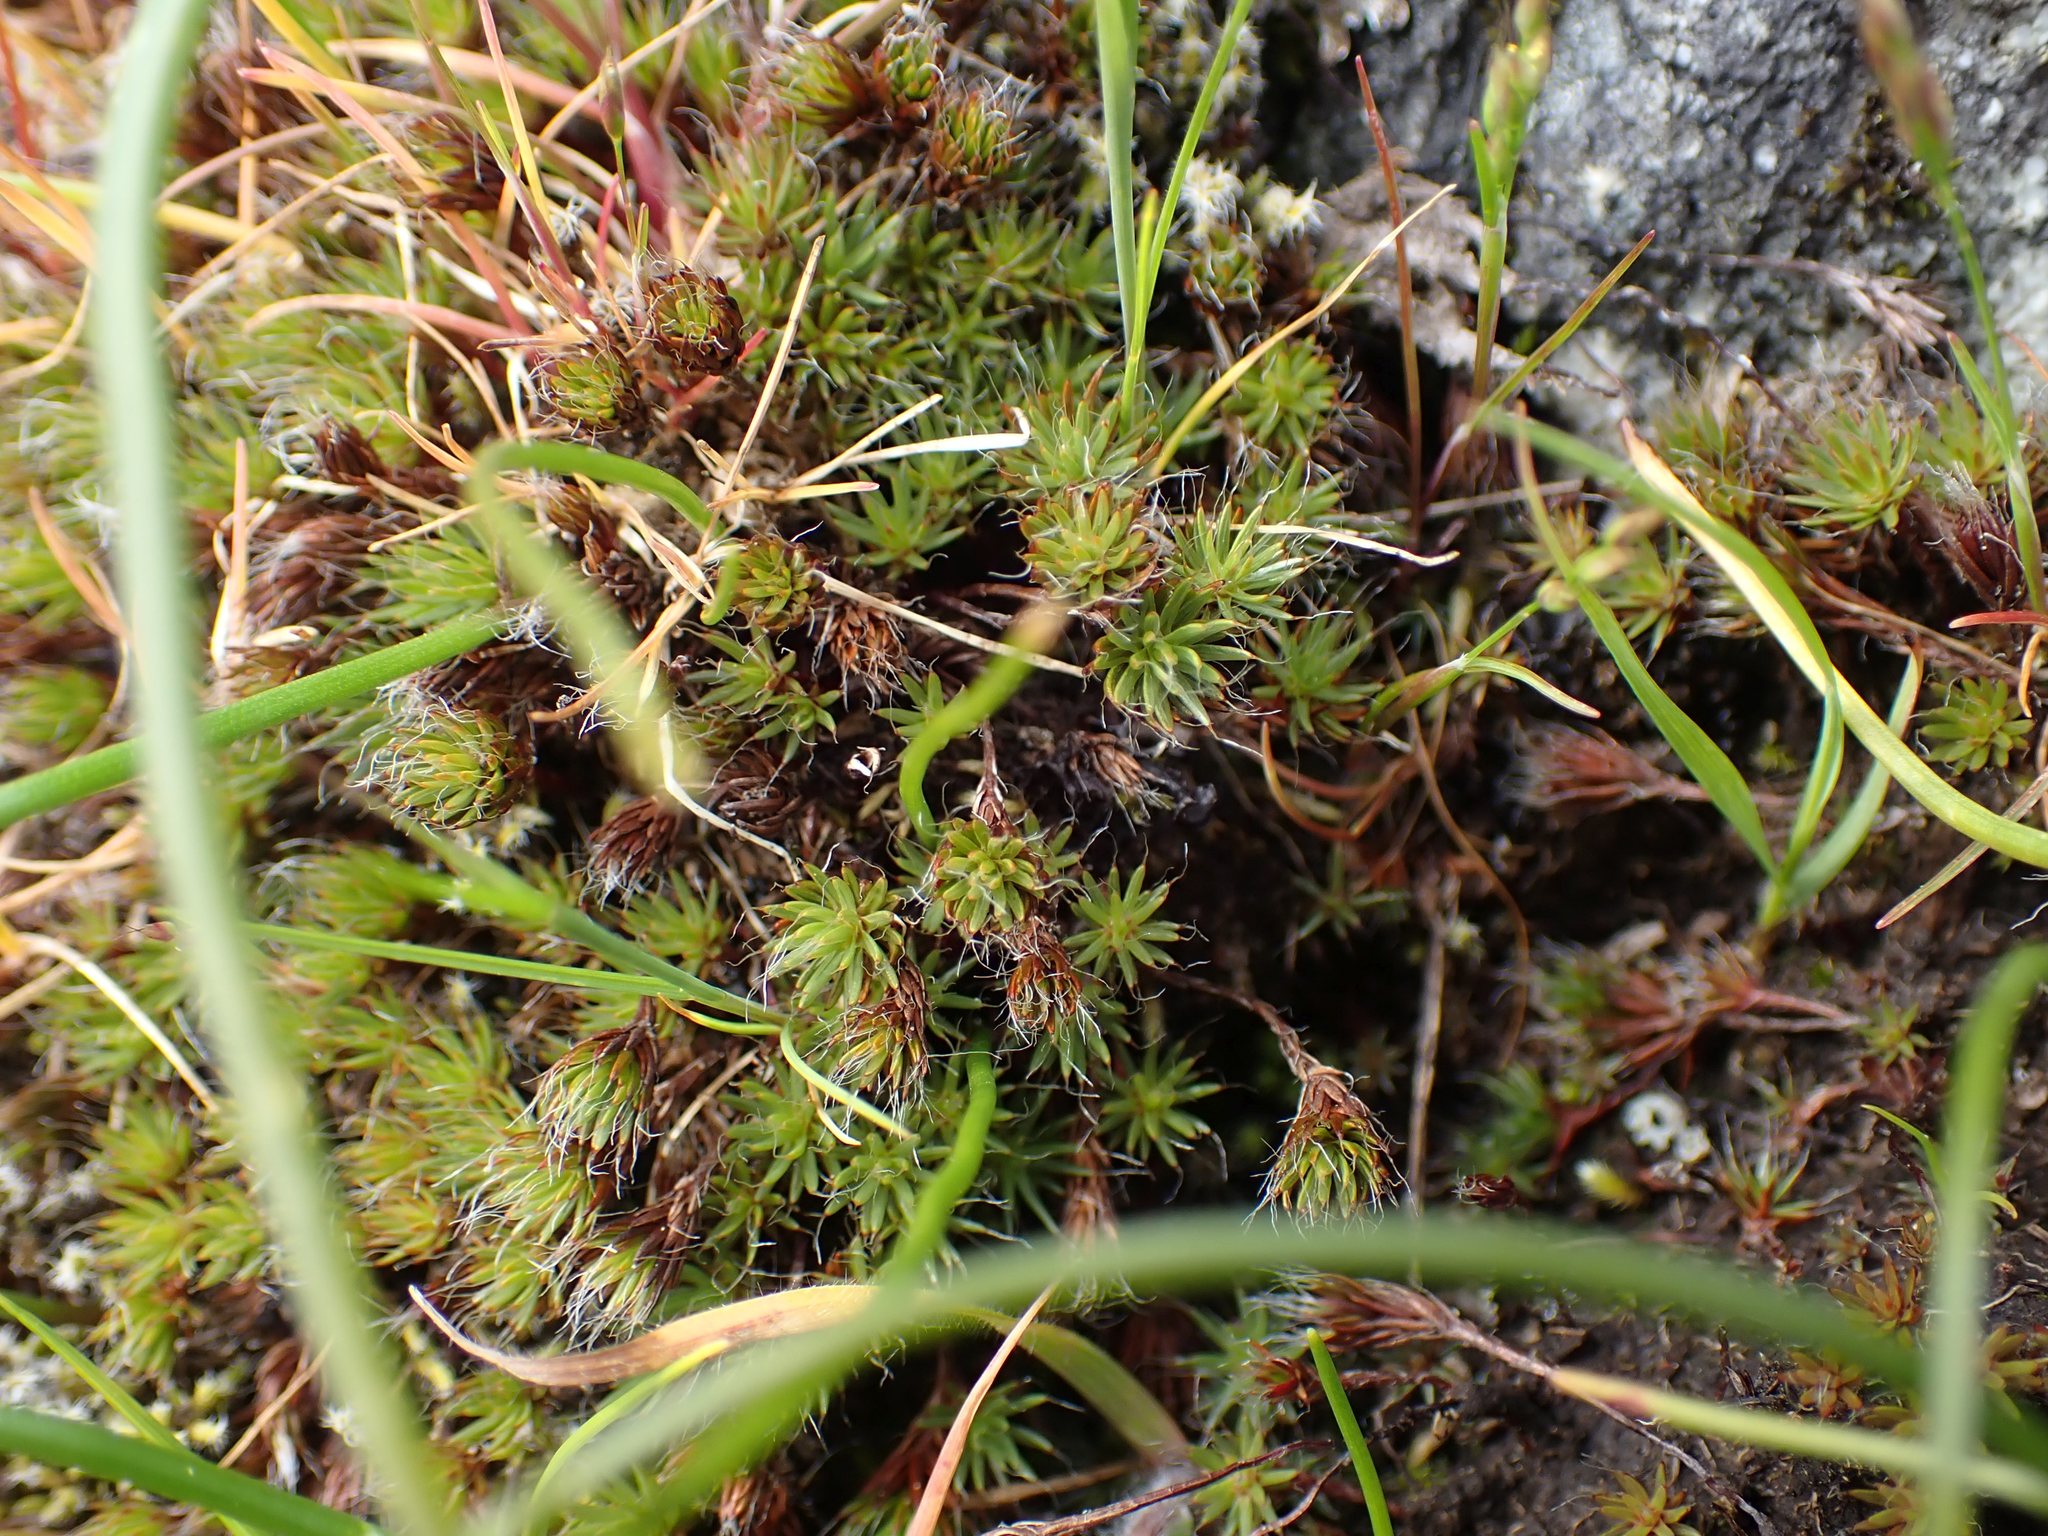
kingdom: Plantae
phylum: Bryophyta
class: Polytrichopsida
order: Polytrichales
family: Polytrichaceae
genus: Polytrichum
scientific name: Polytrichum piliferum
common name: Bristly haircap
